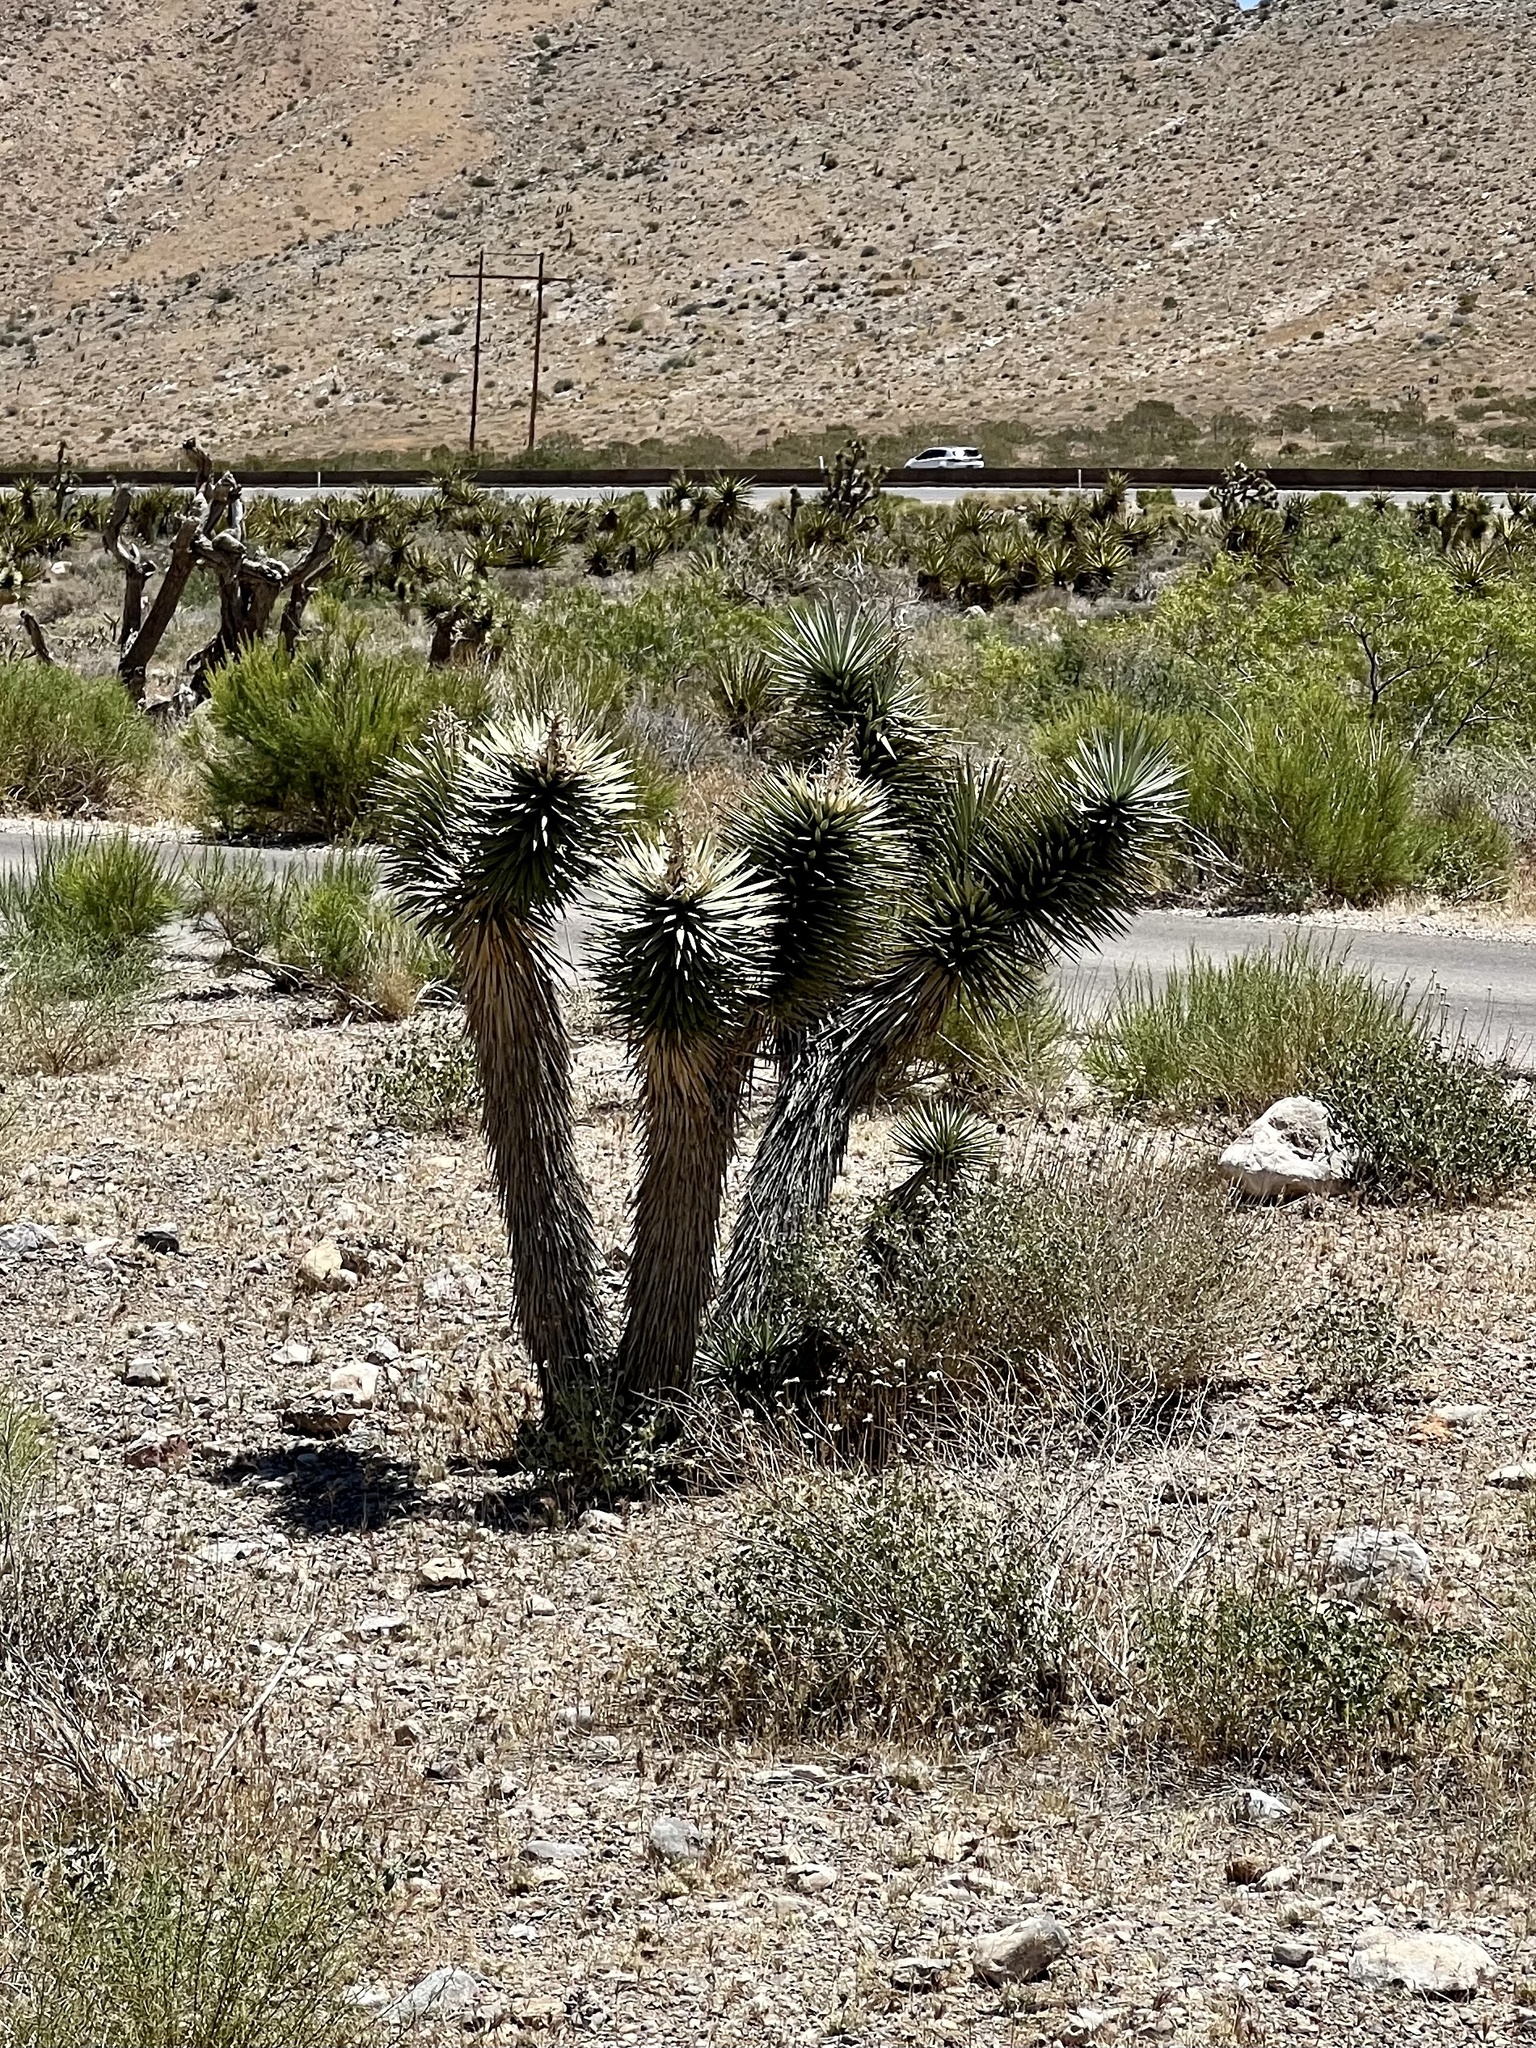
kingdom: Plantae
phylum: Tracheophyta
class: Liliopsida
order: Asparagales
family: Asparagaceae
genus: Yucca
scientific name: Yucca brevifolia
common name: Joshua tree
